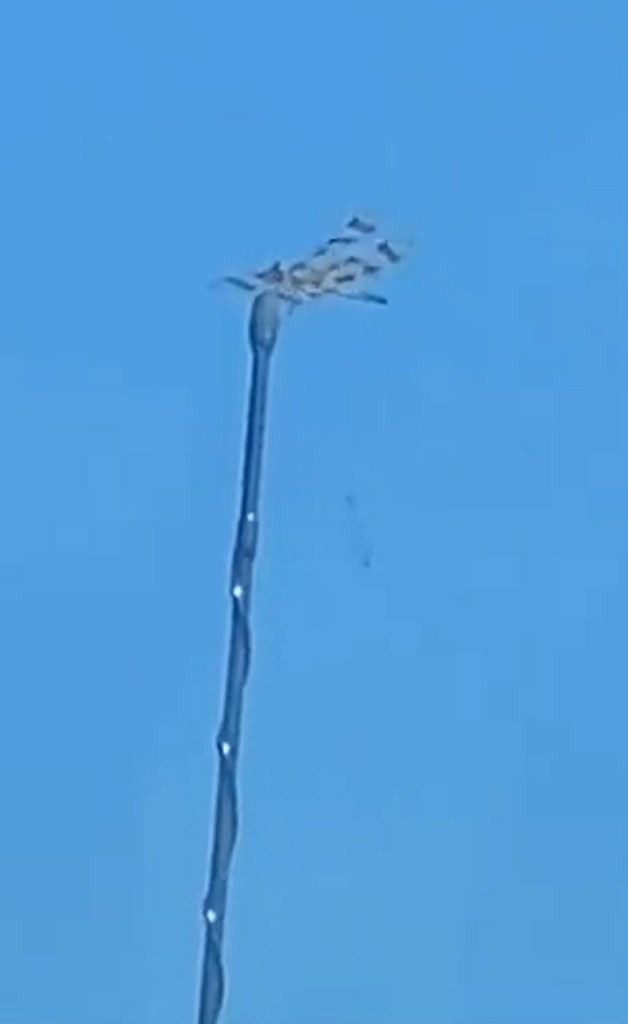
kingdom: Animalia
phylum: Arthropoda
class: Insecta
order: Odonata
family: Libellulidae
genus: Celithemis
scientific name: Celithemis eponina
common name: Halloween pennant
